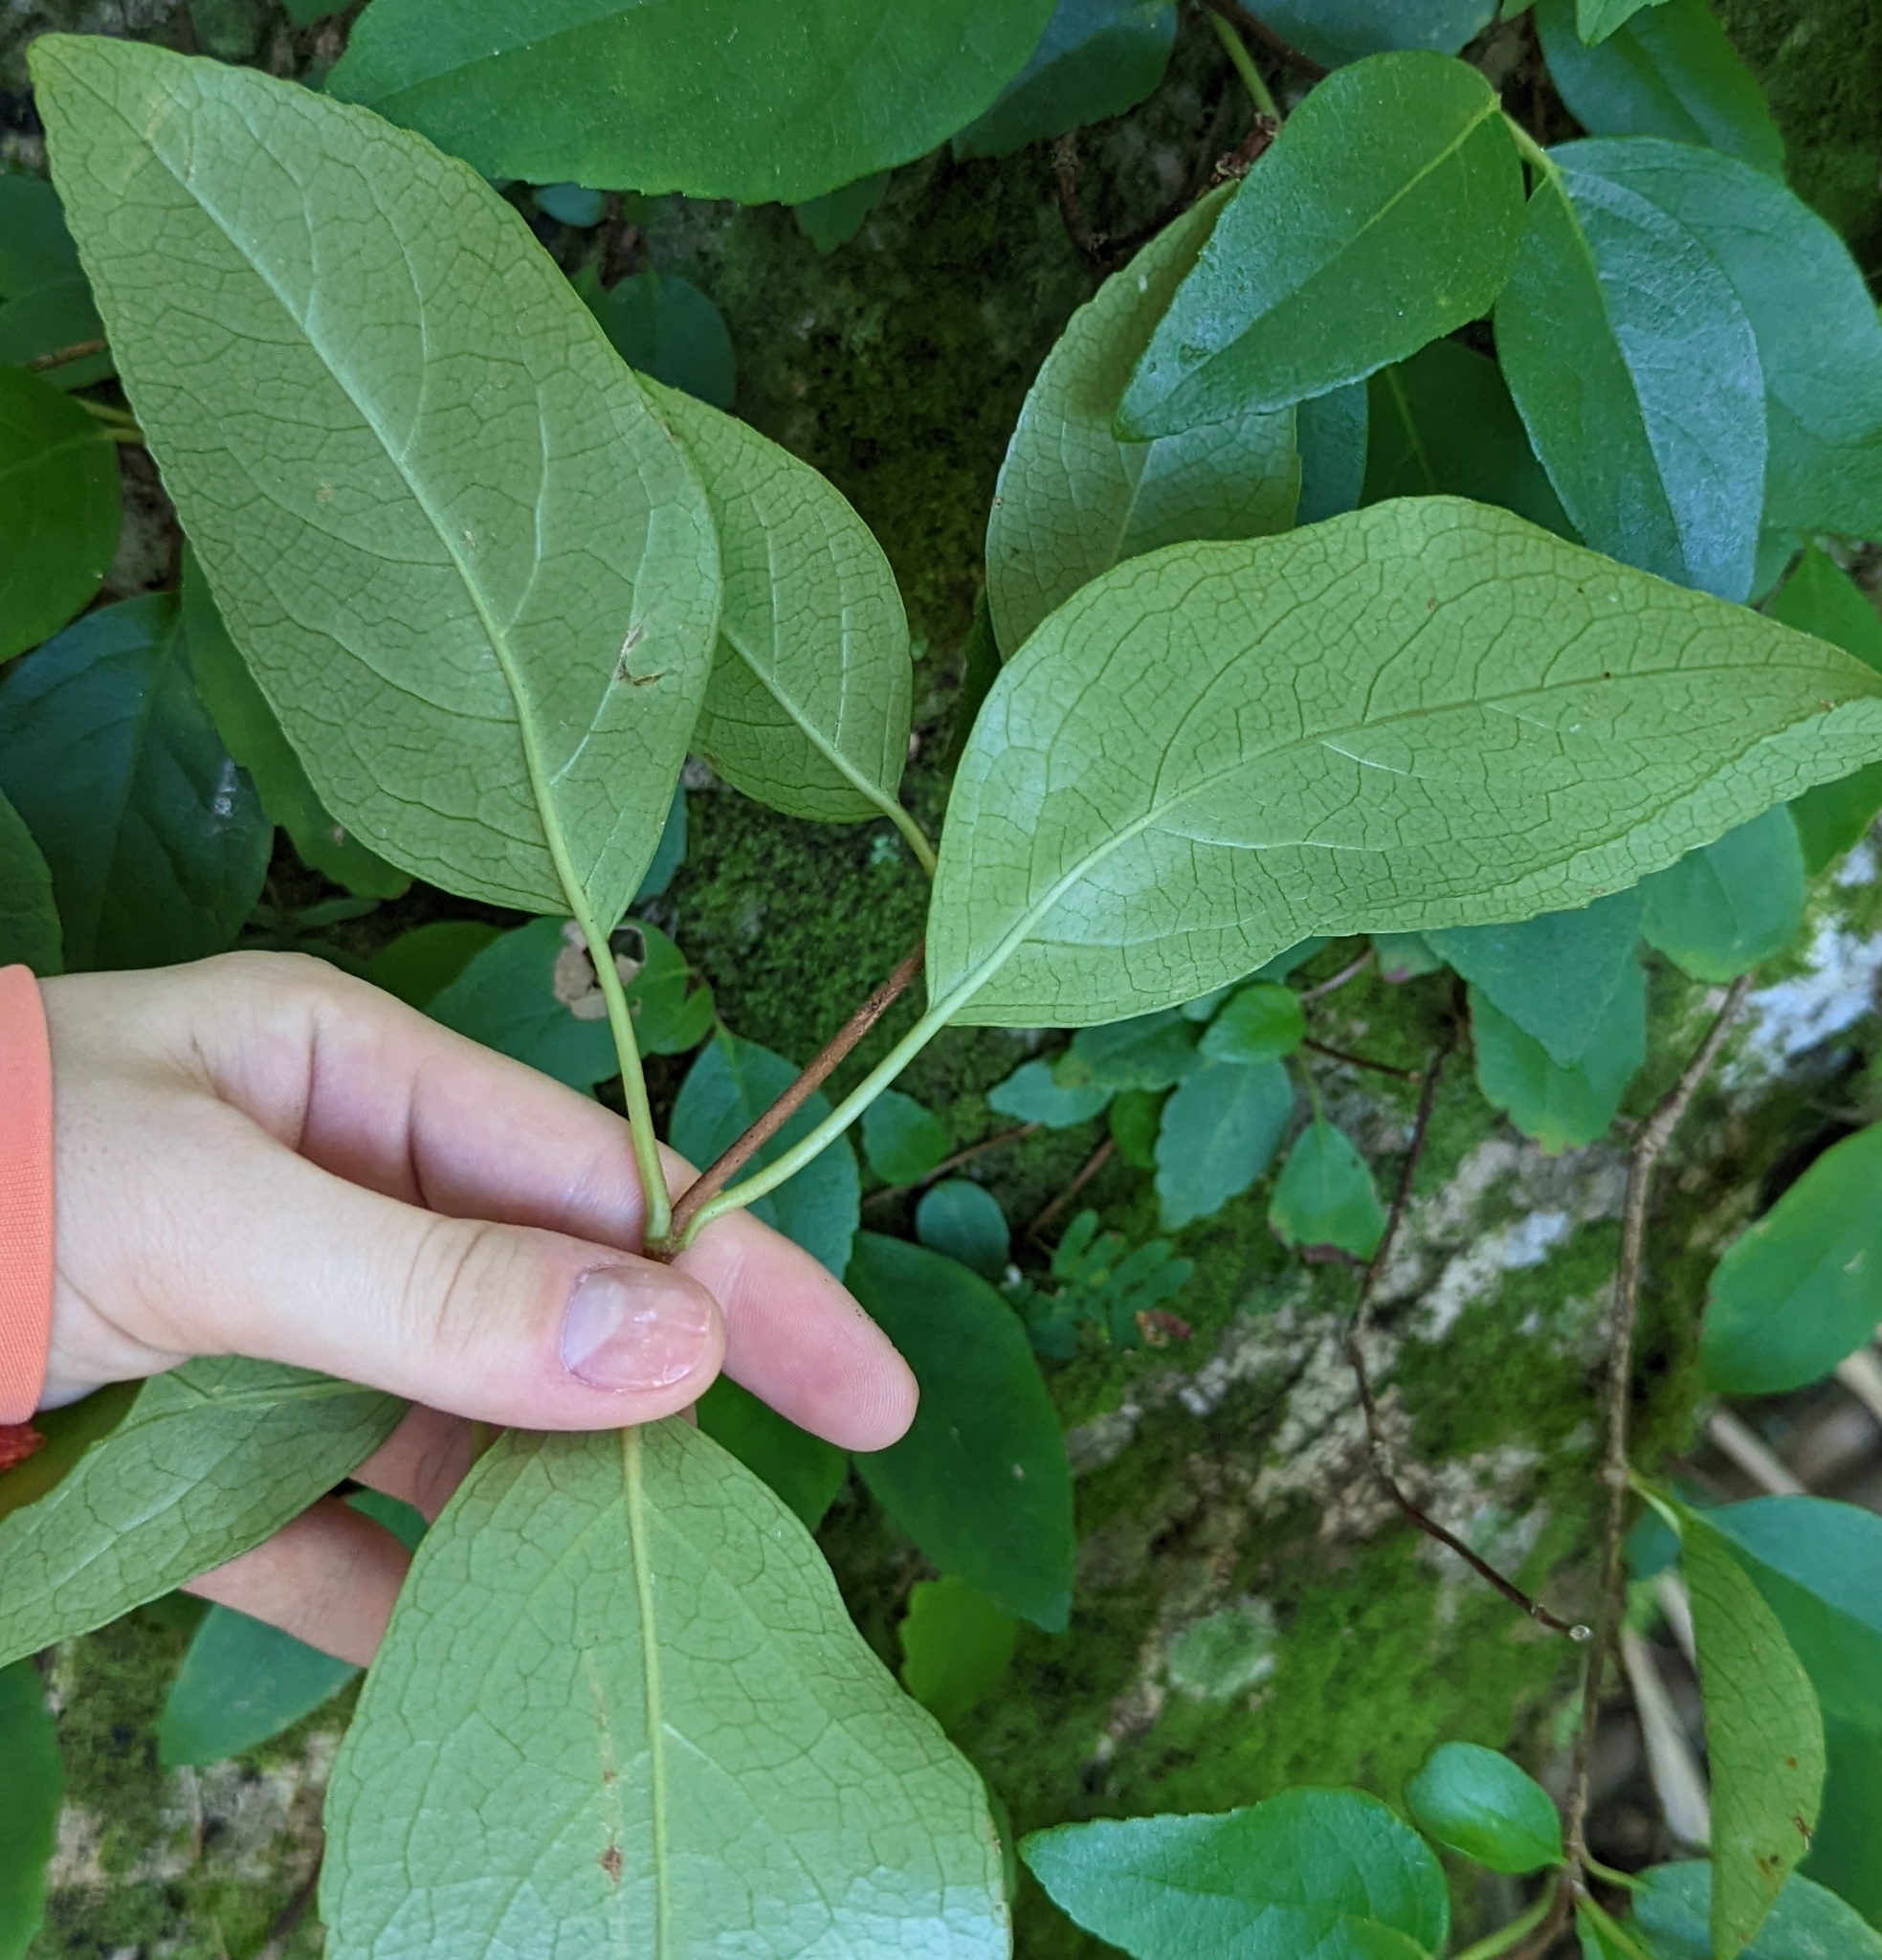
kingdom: Plantae
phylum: Tracheophyta
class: Magnoliopsida
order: Cornales
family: Hydrangeaceae
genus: Hydrangea
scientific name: Hydrangea barbara
